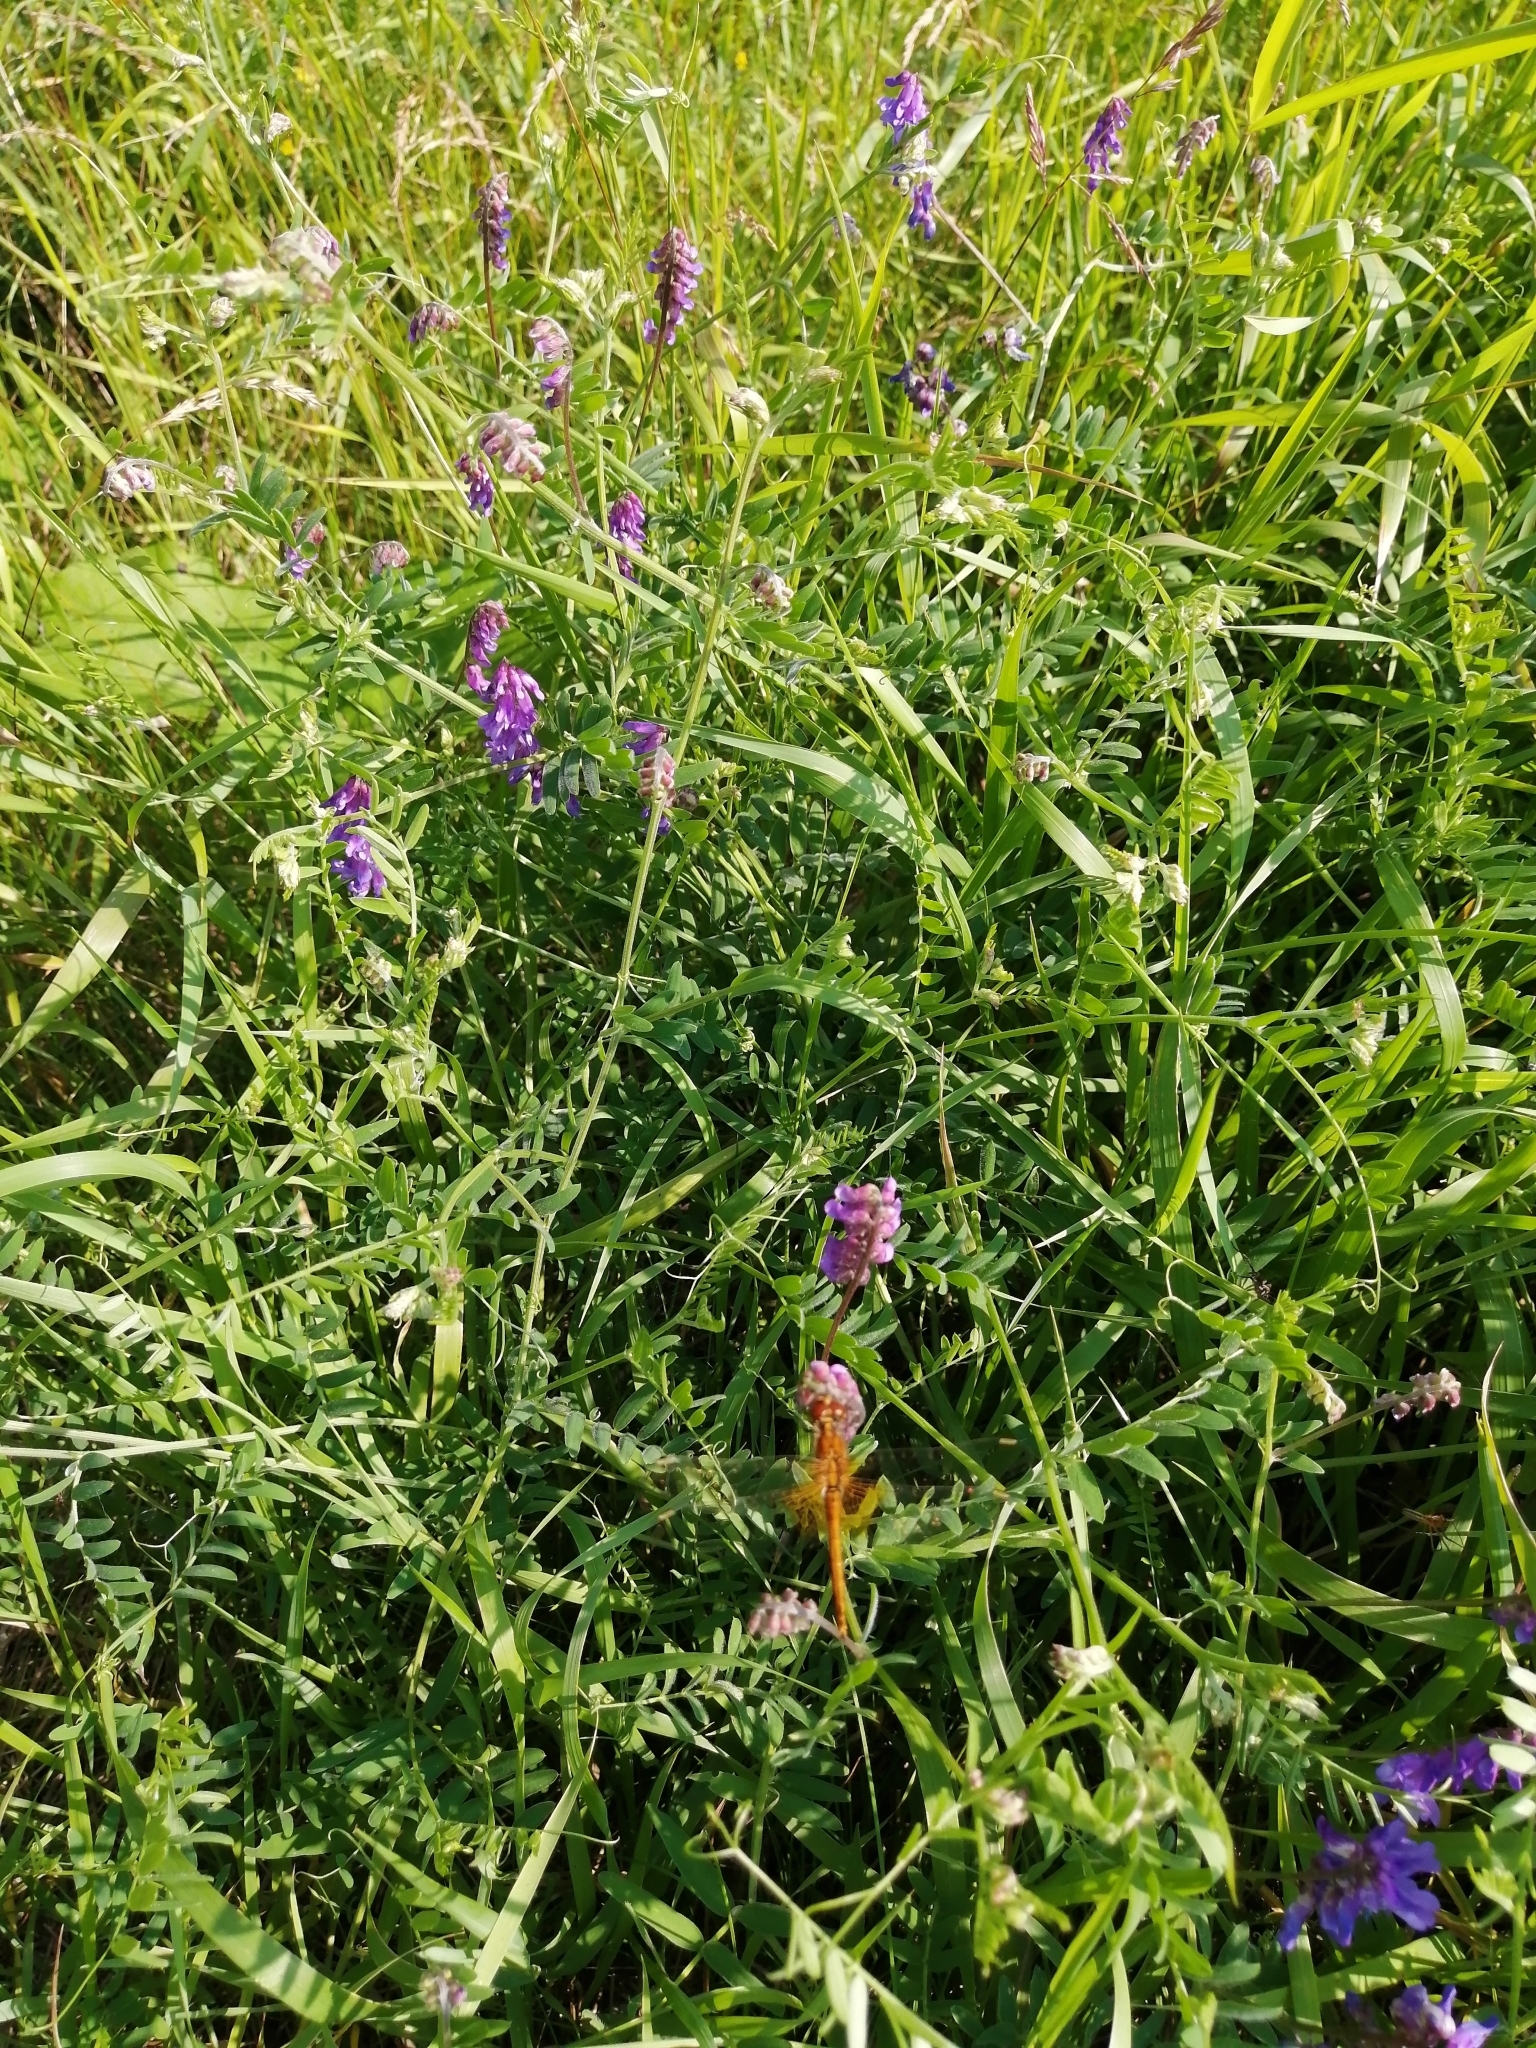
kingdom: Plantae
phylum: Tracheophyta
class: Magnoliopsida
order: Fabales
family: Fabaceae
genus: Vicia
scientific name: Vicia cracca
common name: Bird vetch
